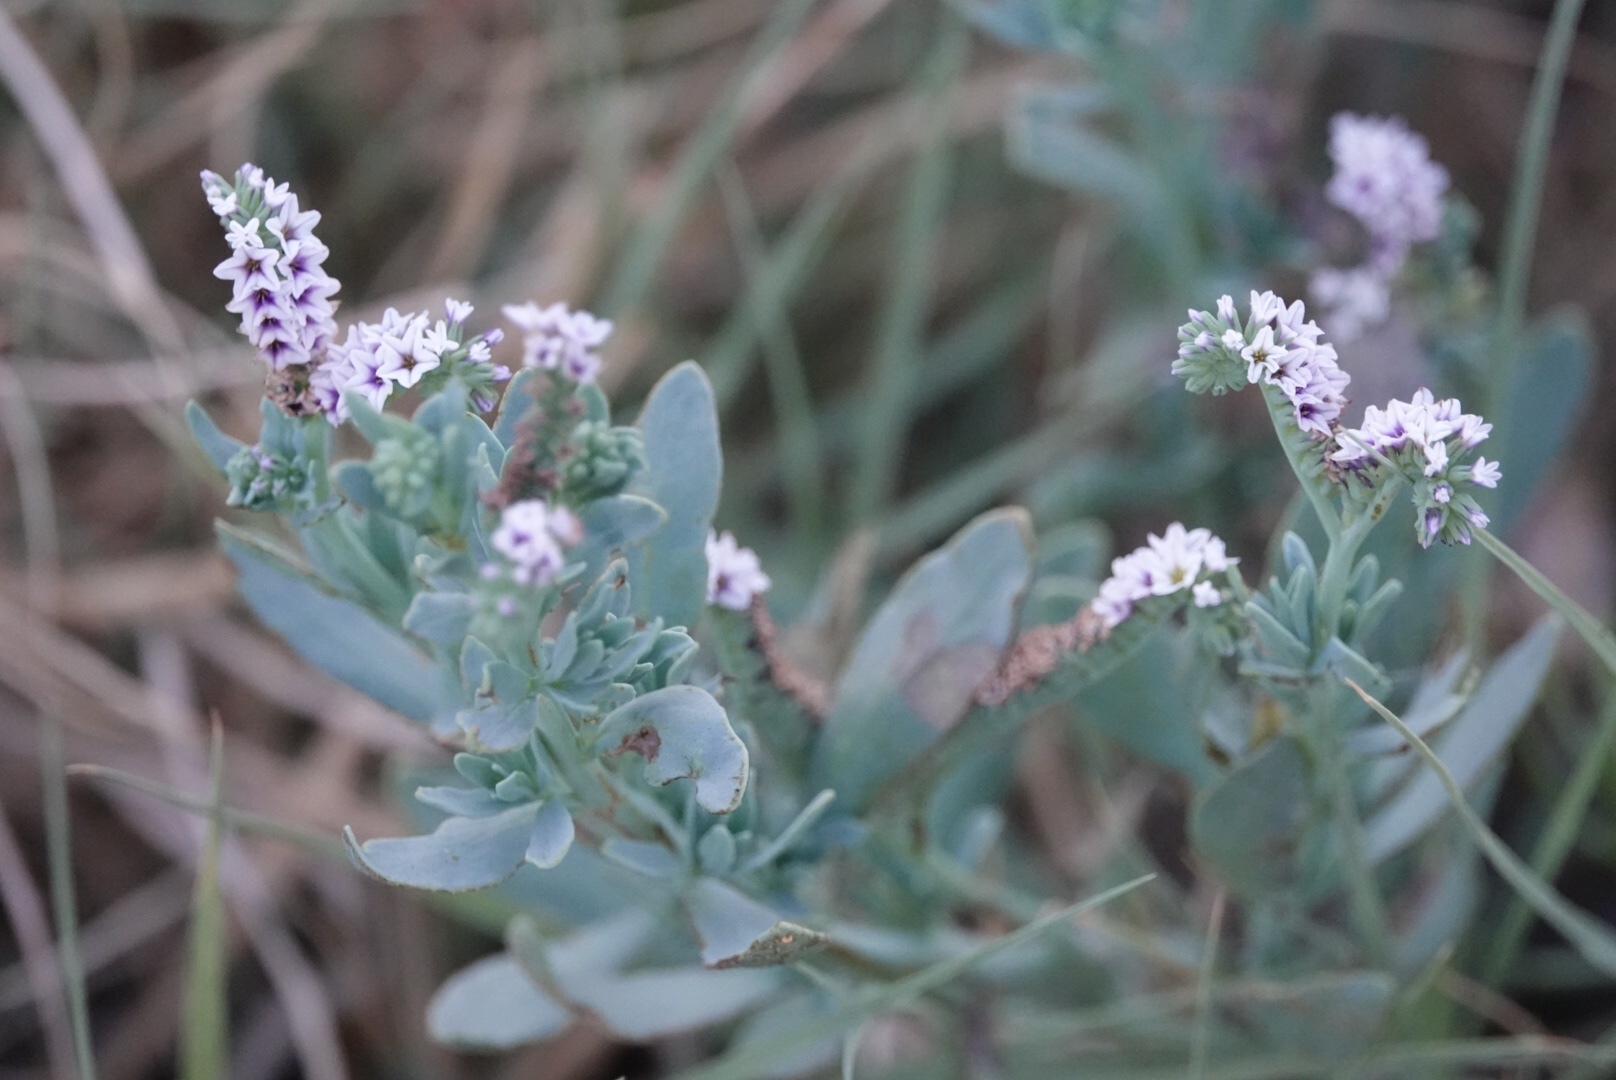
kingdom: Plantae
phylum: Tracheophyta
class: Magnoliopsida
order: Boraginales
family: Heliotropiaceae
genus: Heliotropium
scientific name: Heliotropium curassavicum
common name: Seaside heliotrope
